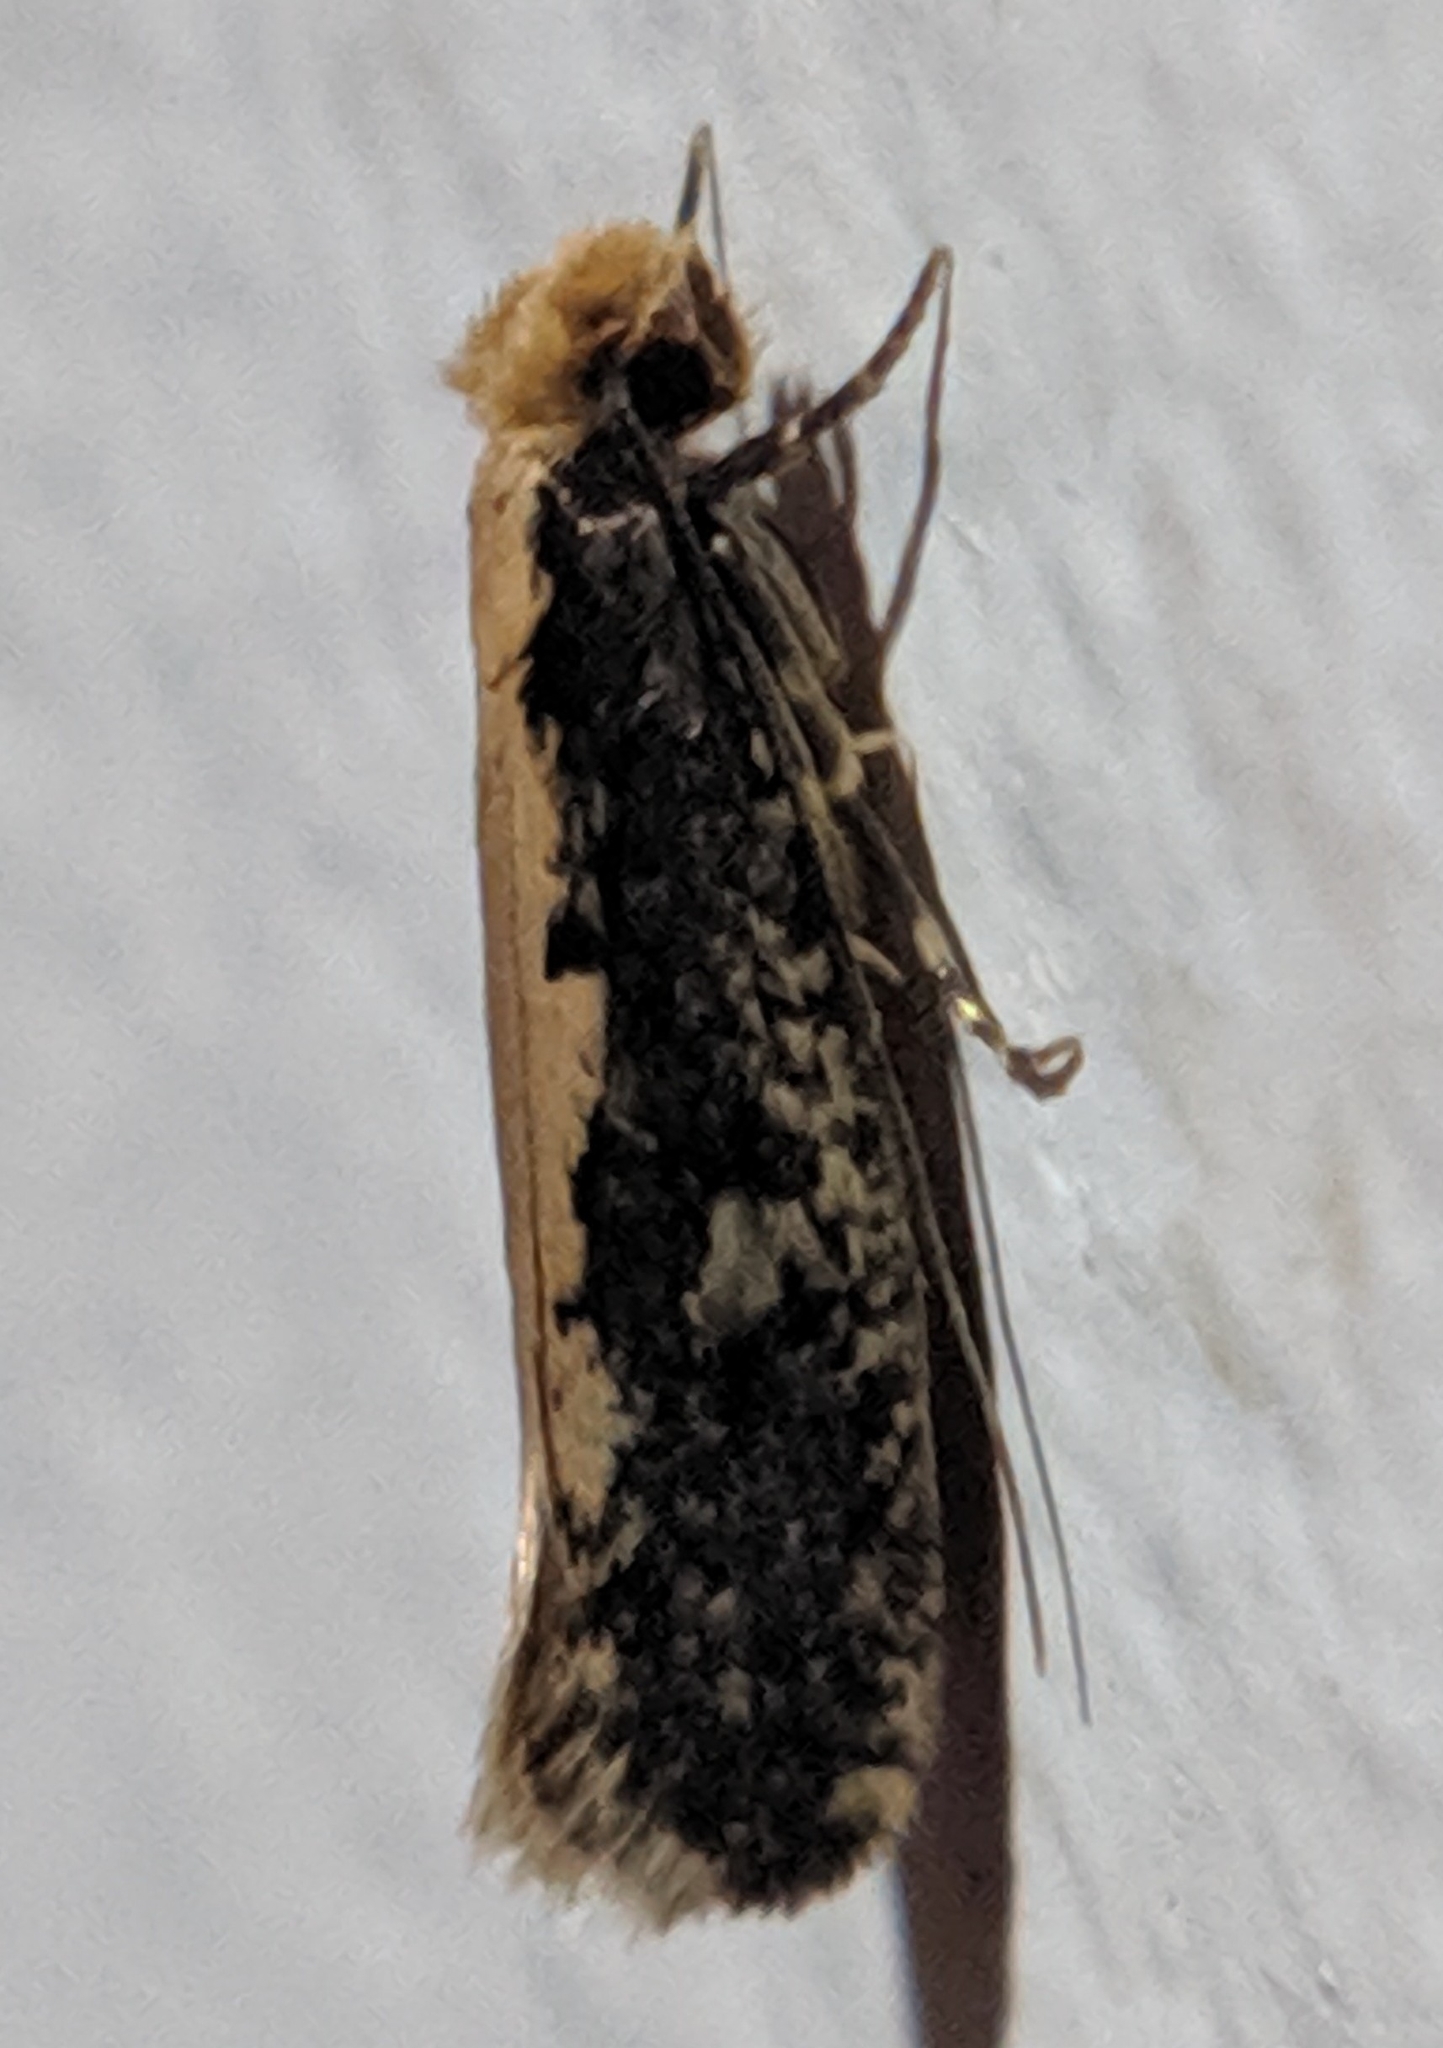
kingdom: Animalia
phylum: Arthropoda
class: Insecta
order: Lepidoptera
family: Tineidae
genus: Monopis
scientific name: Monopis crocicapitella
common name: Moth
